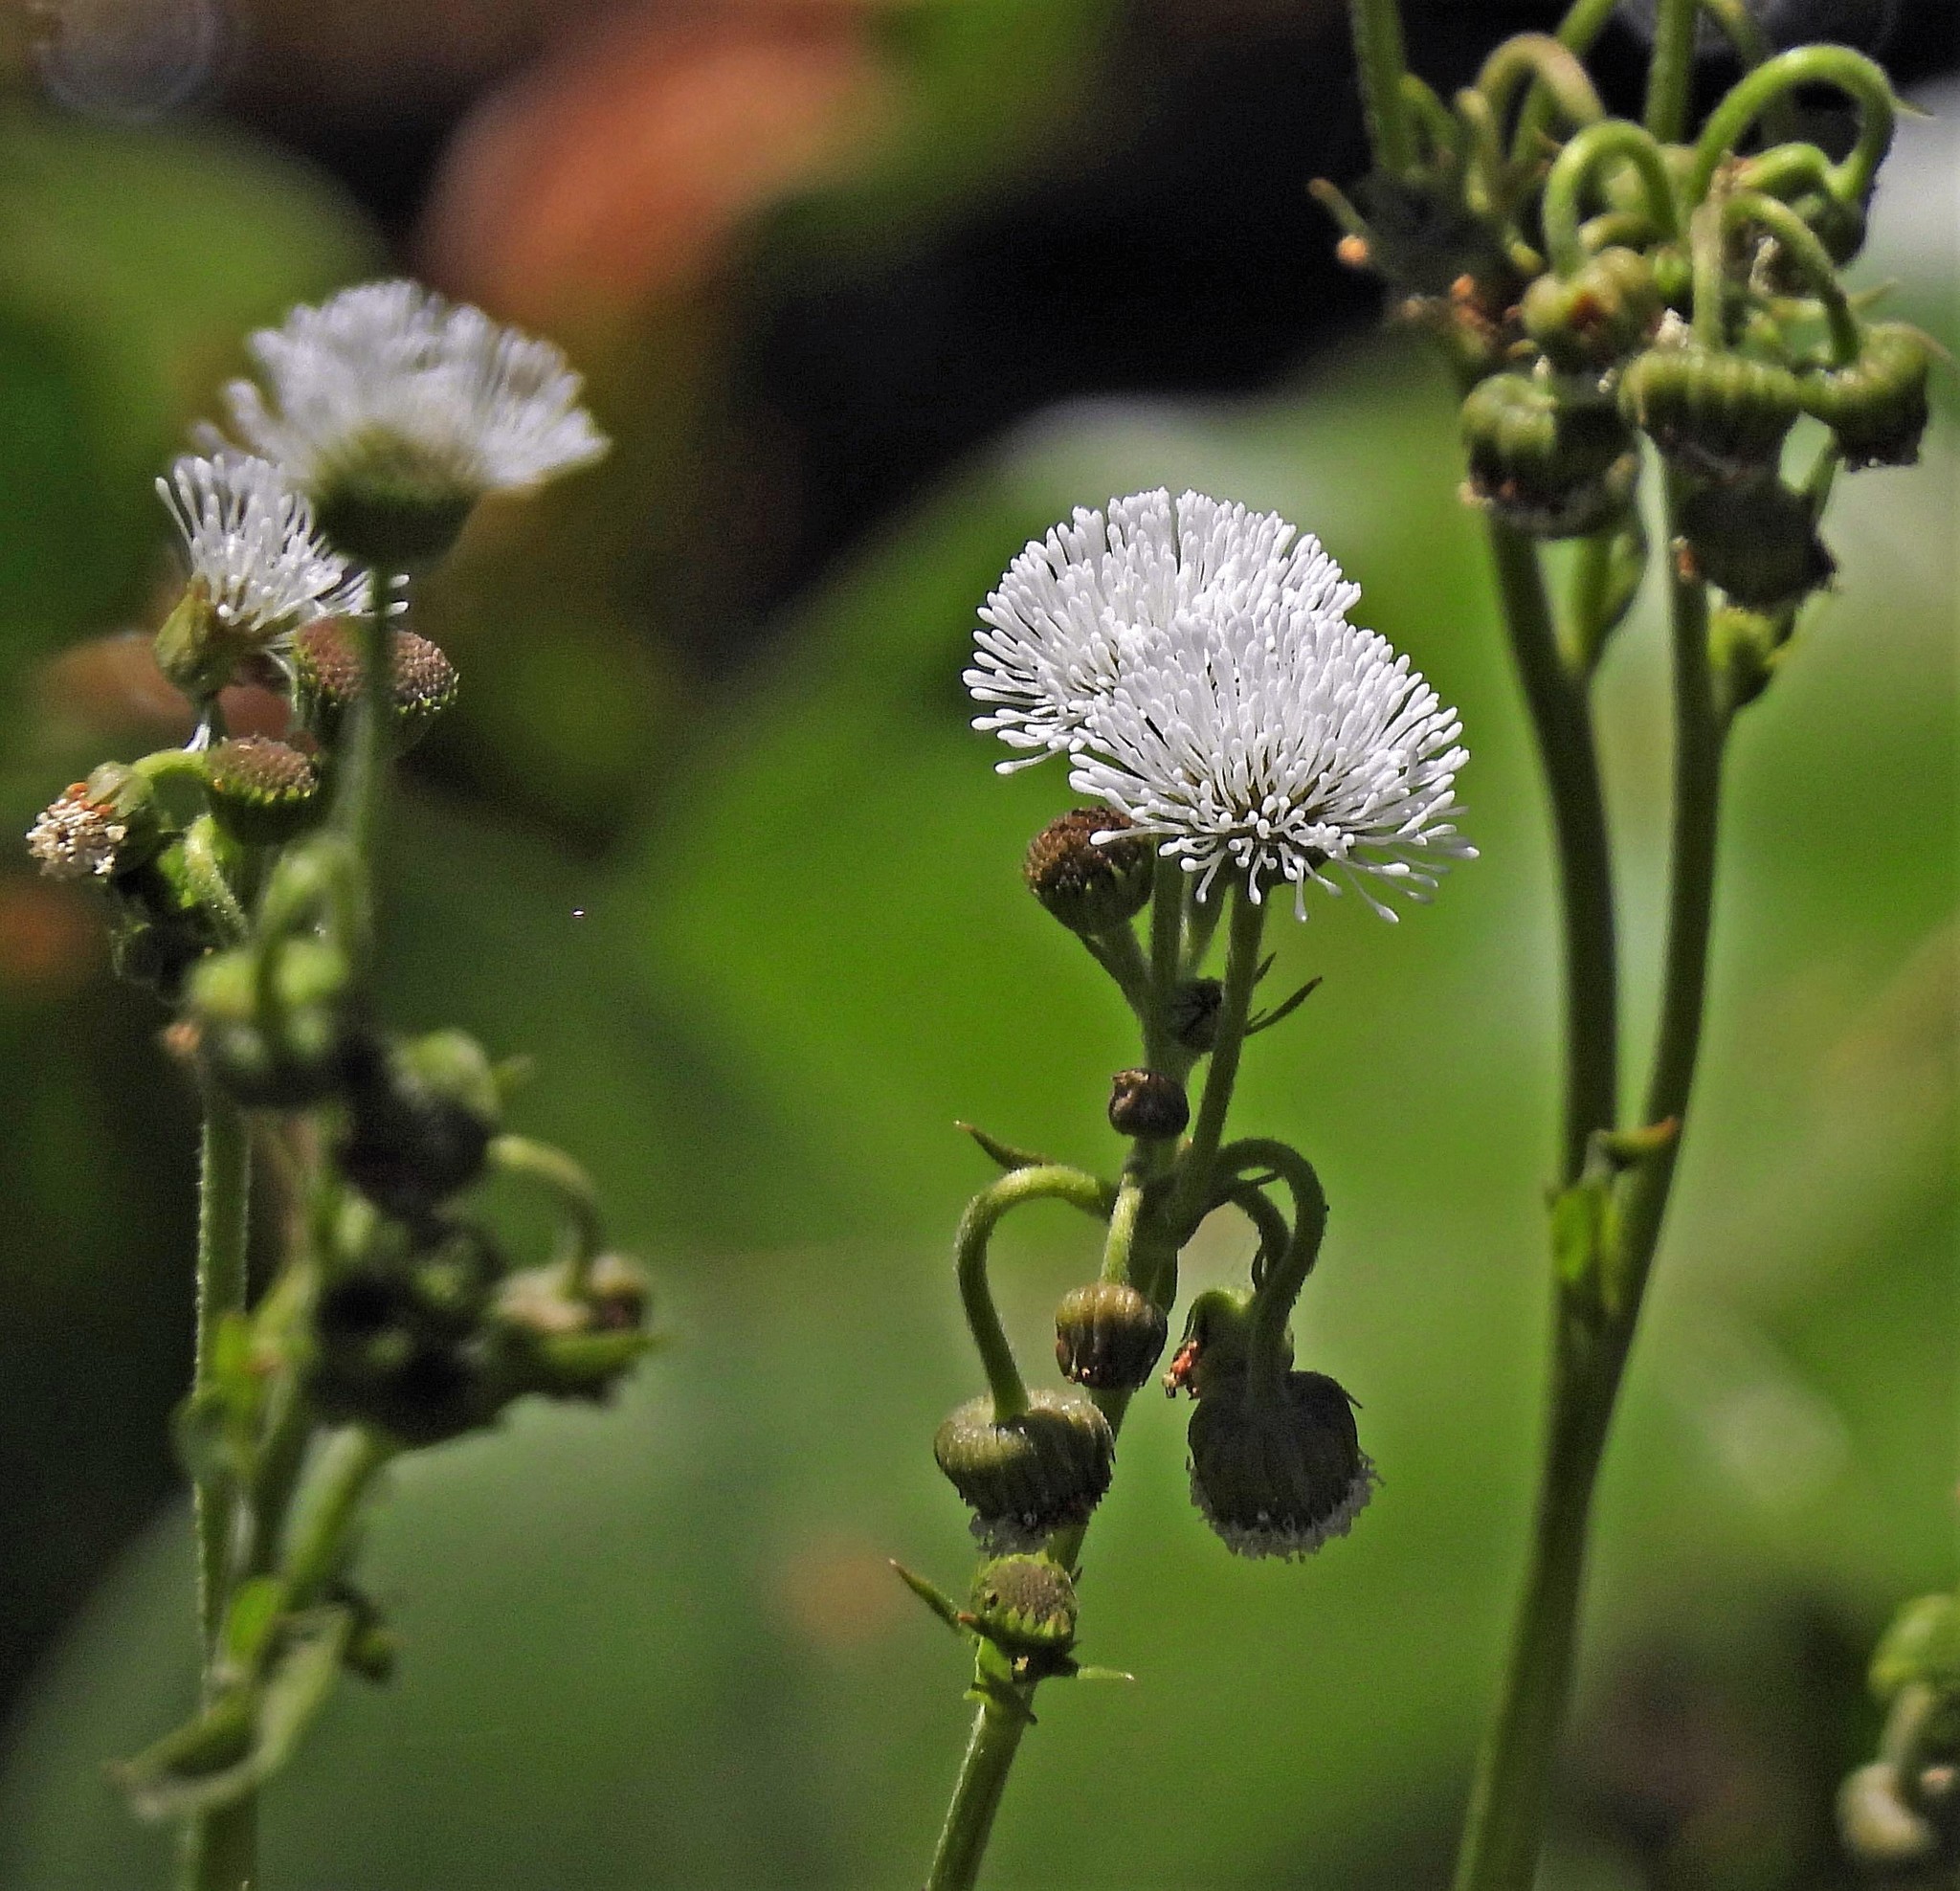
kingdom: Plantae
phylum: Tracheophyta
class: Magnoliopsida
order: Asterales
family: Asteraceae
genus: Gymnocoronis
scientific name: Gymnocoronis spilanthoides
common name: Senegal teaplant
